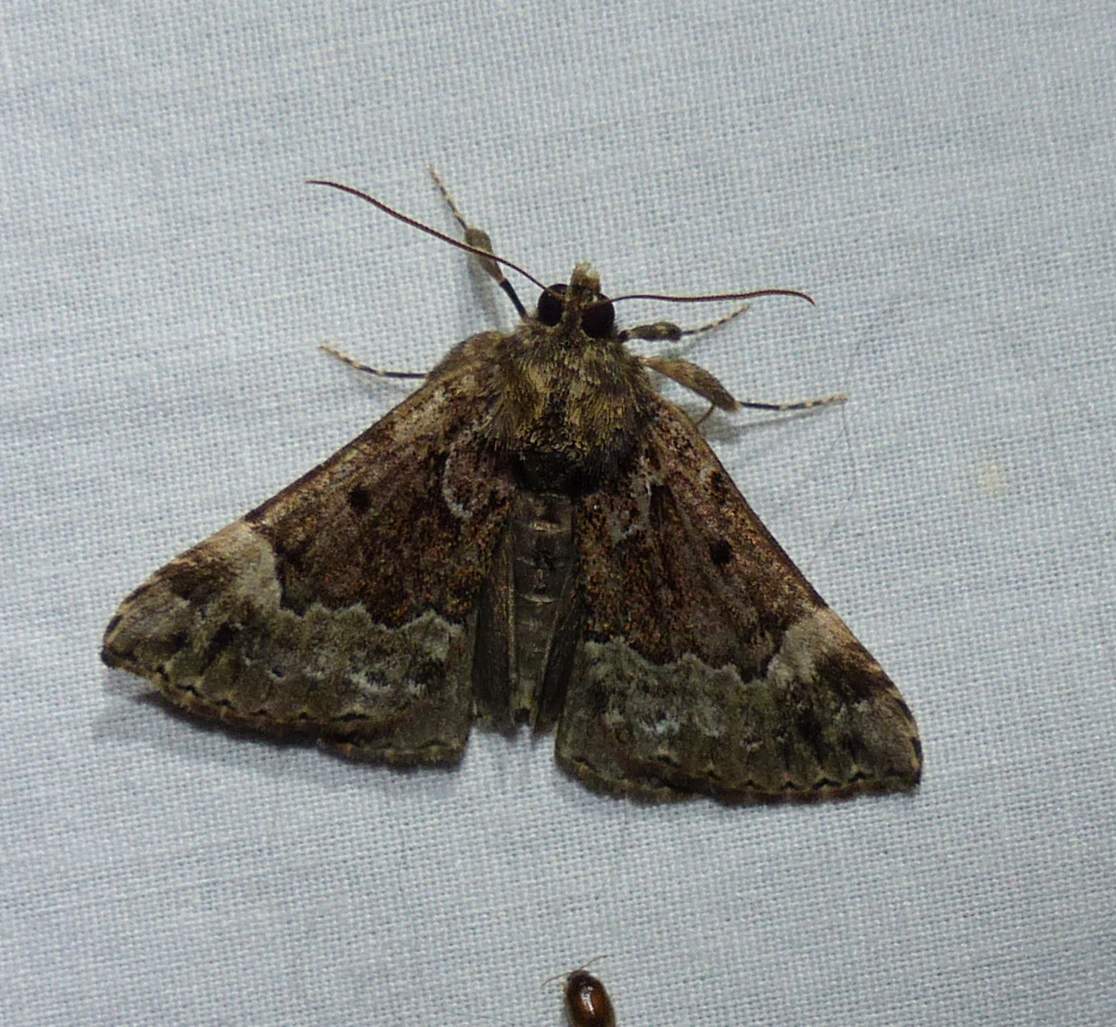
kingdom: Animalia
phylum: Arthropoda
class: Insecta
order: Lepidoptera
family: Erebidae
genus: Hypena
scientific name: Hypena palparia
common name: Mottled bomolocha moth
